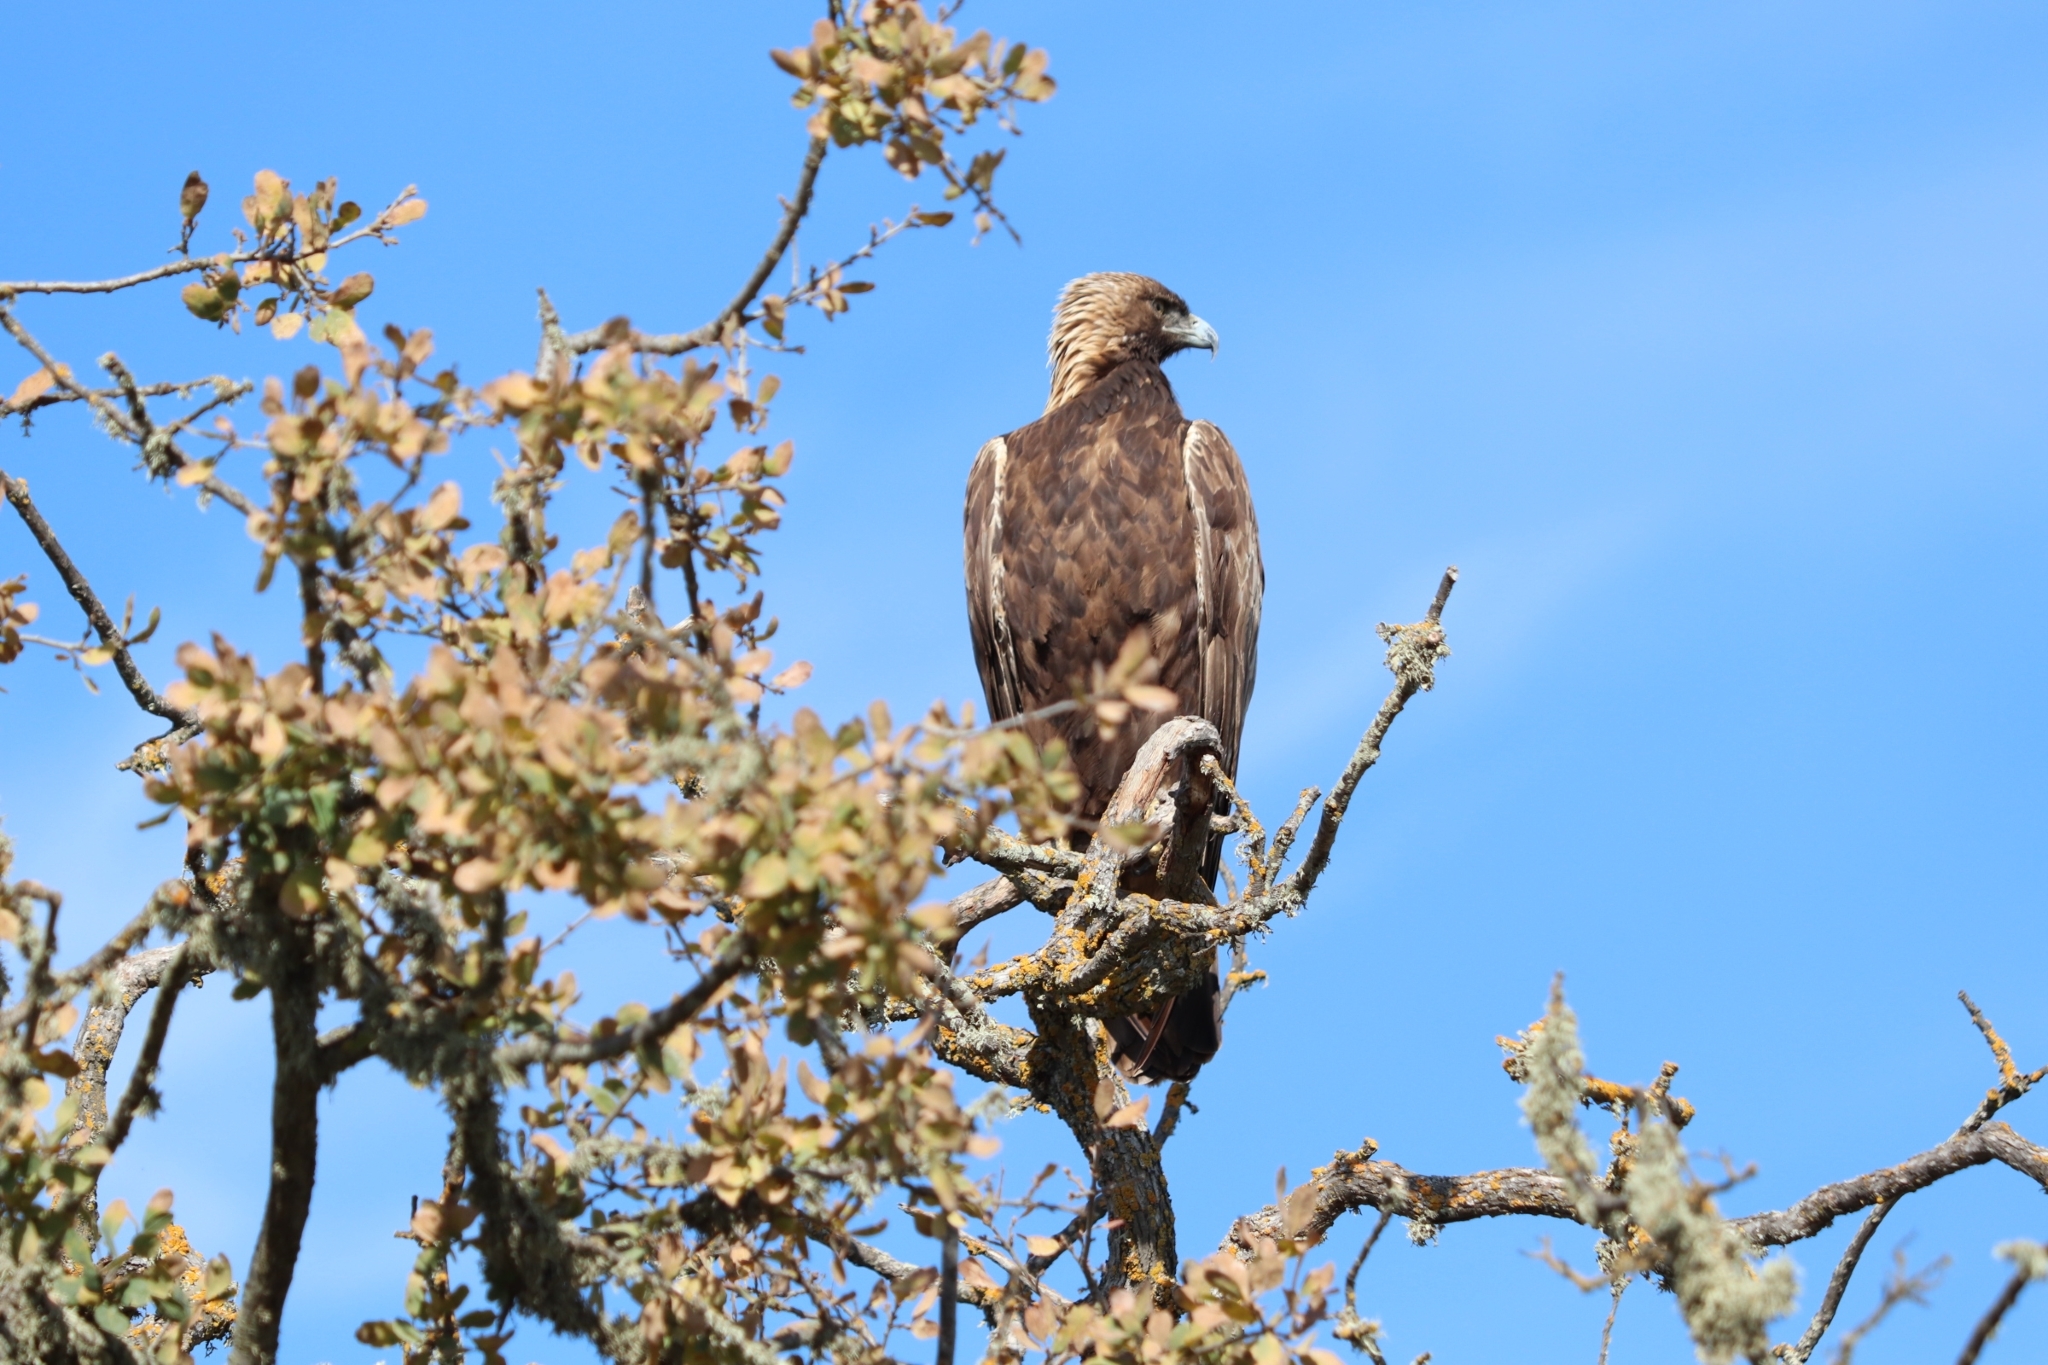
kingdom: Animalia
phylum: Chordata
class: Aves
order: Accipitriformes
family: Accipitridae
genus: Aquila
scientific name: Aquila chrysaetos
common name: Golden eagle
